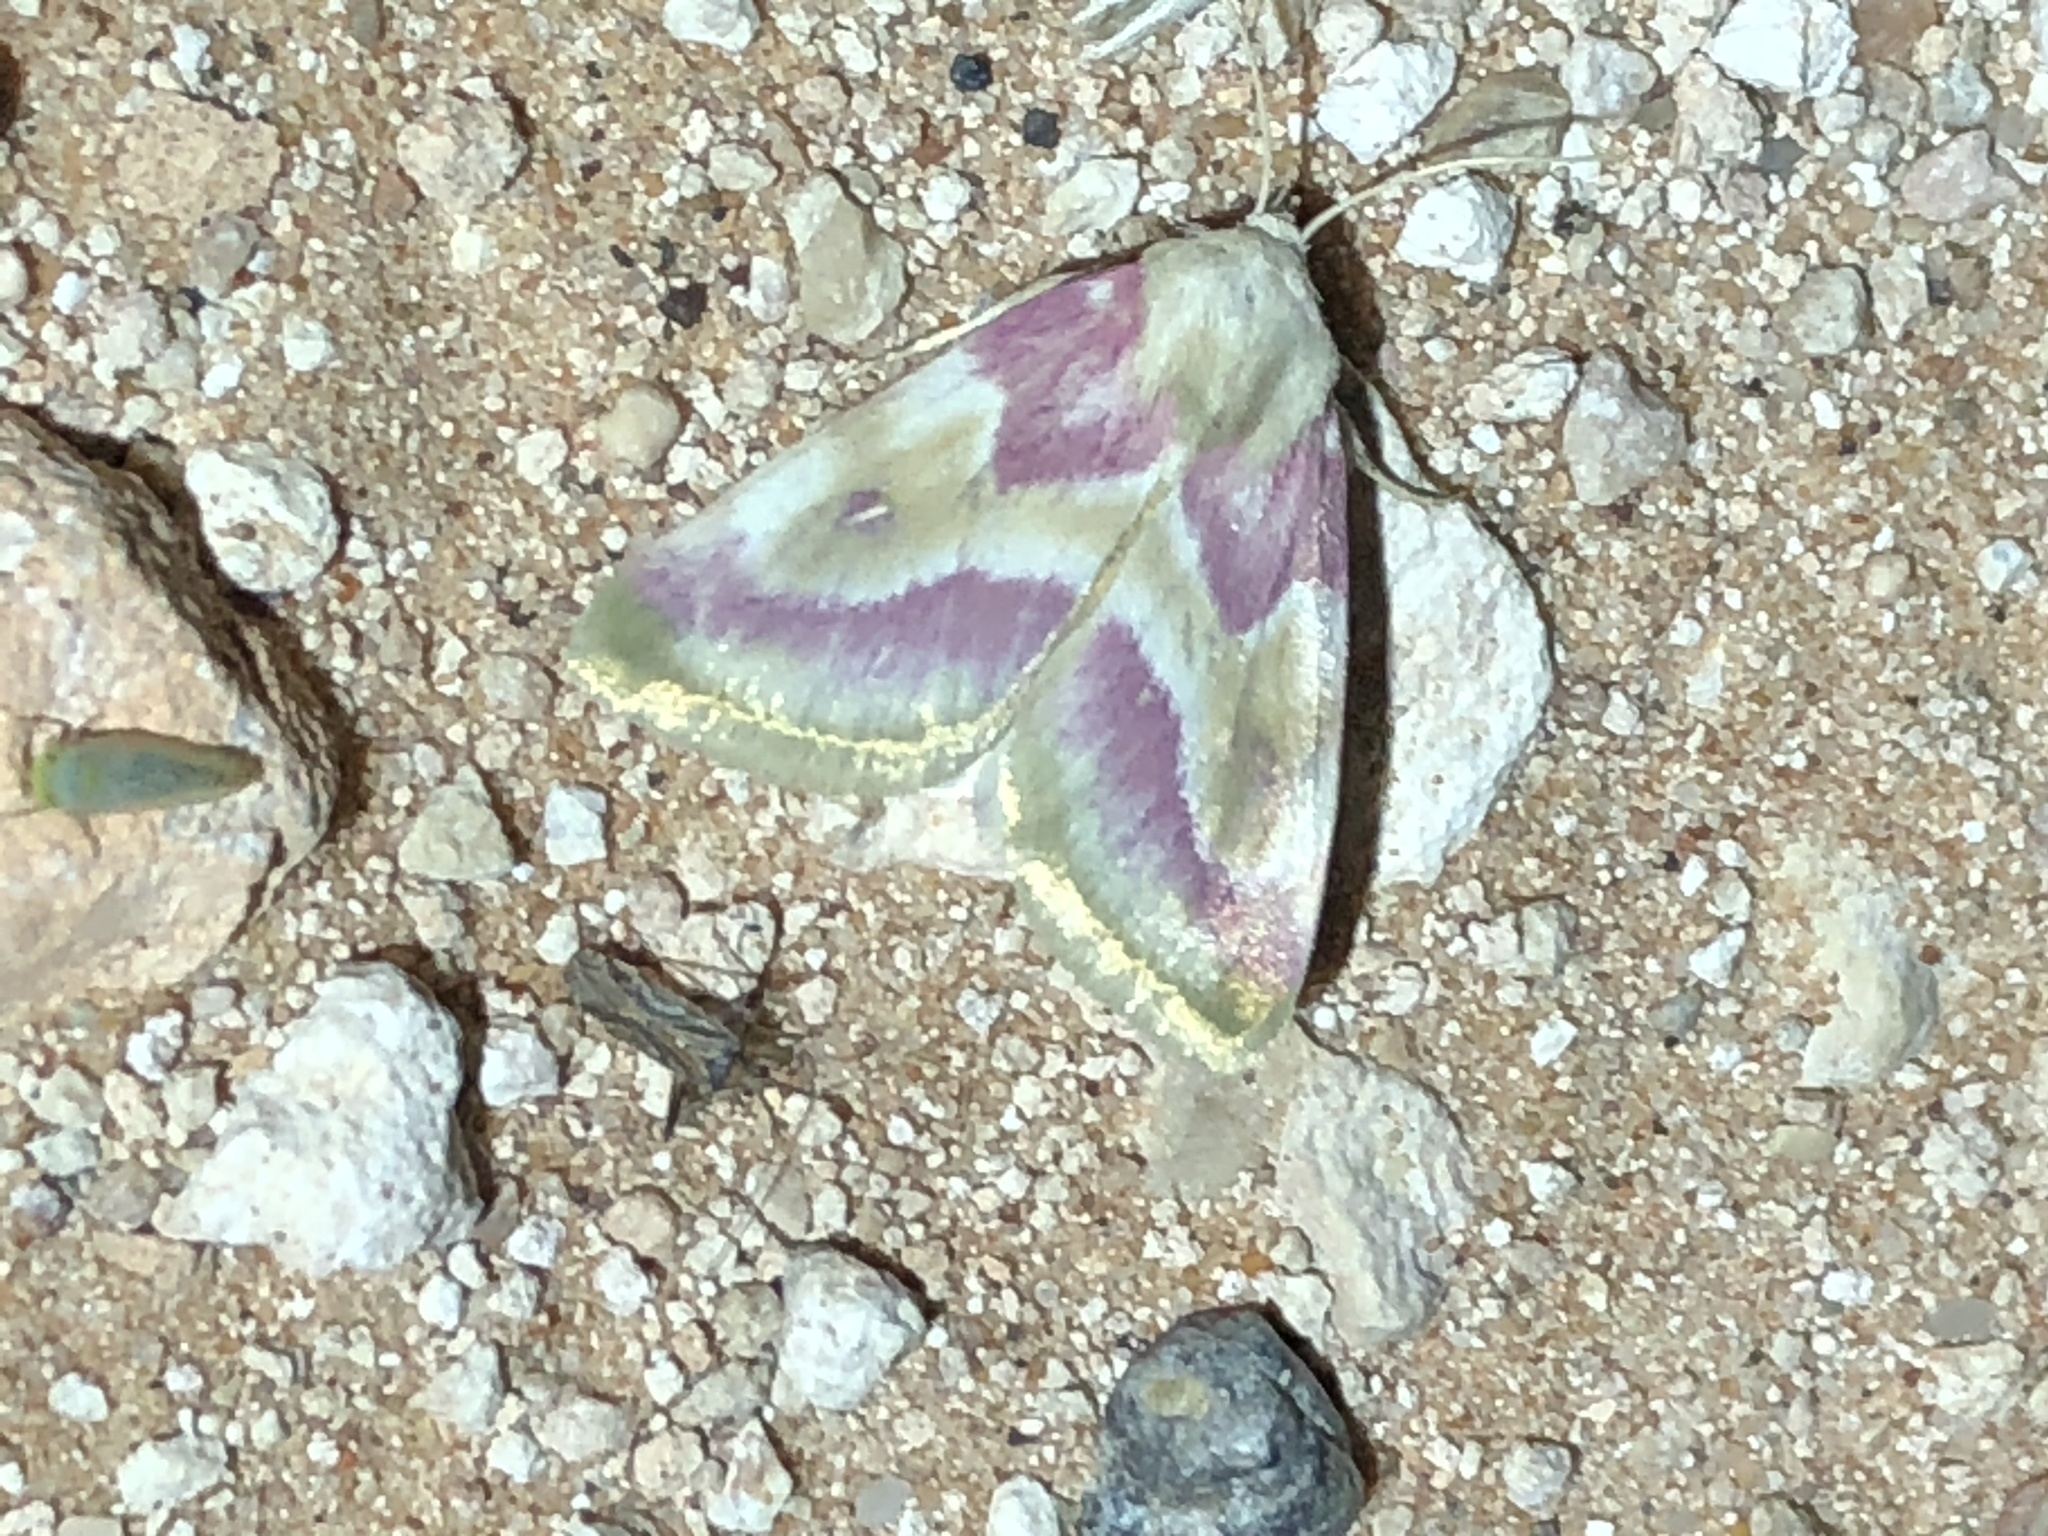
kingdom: Animalia
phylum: Arthropoda
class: Insecta
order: Lepidoptera
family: Noctuidae
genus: Schinia
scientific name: Schinia regina
